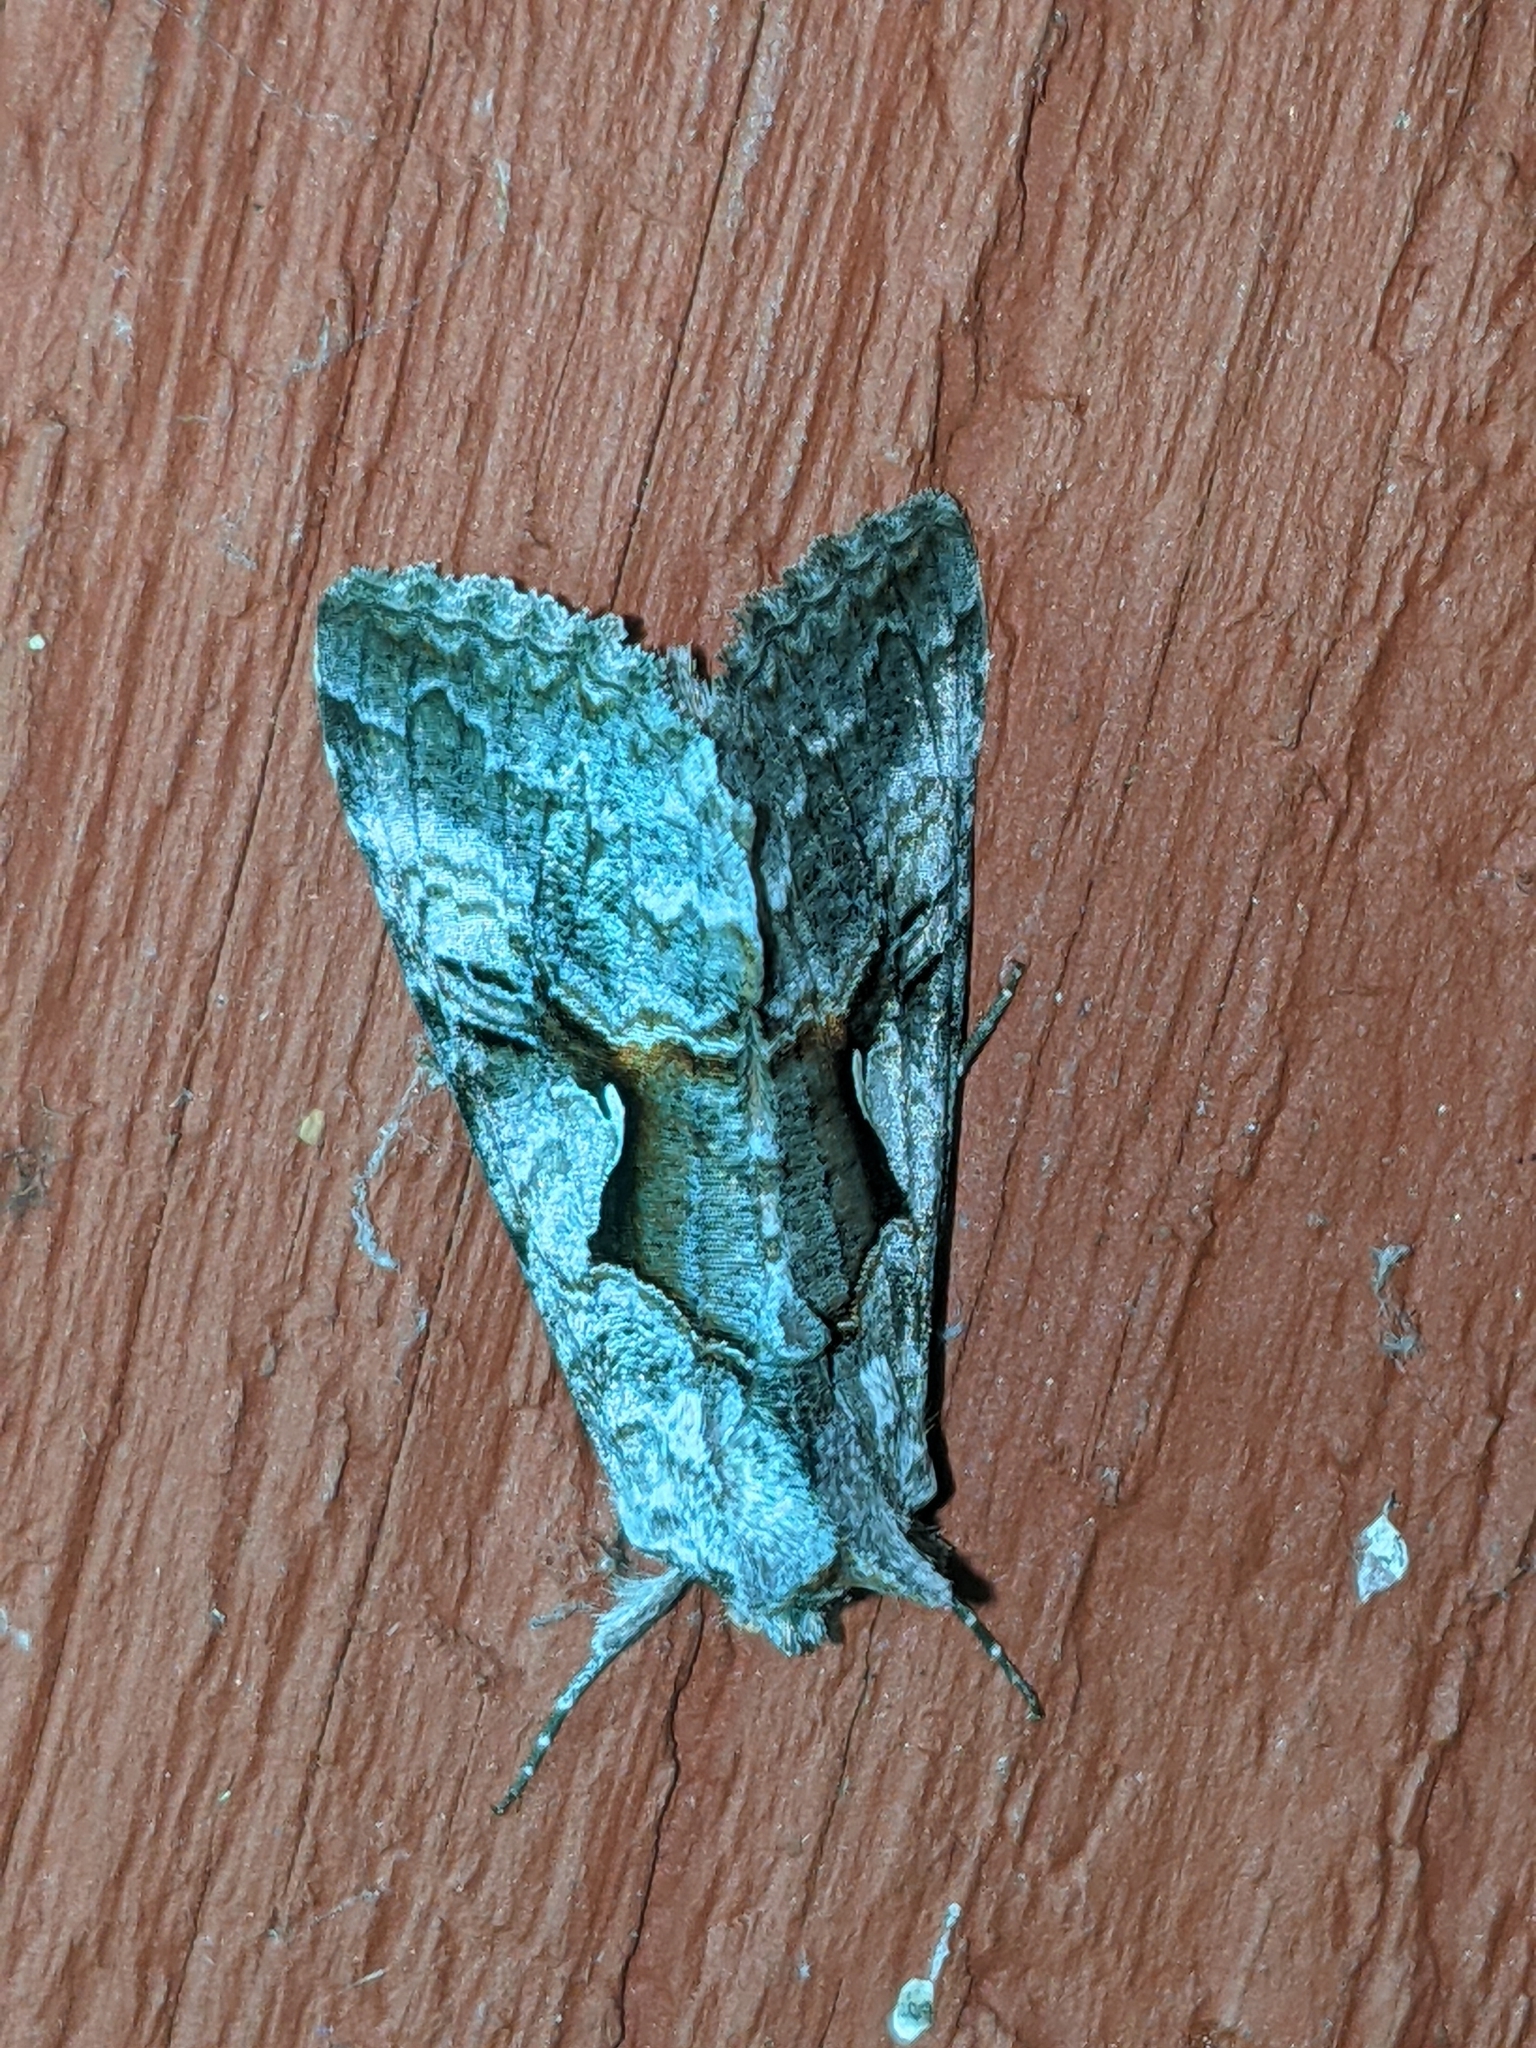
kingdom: Animalia
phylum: Arthropoda
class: Insecta
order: Lepidoptera
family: Noctuidae
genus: Syngrapha
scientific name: Syngrapha epigaea
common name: Epigaea looper moth
